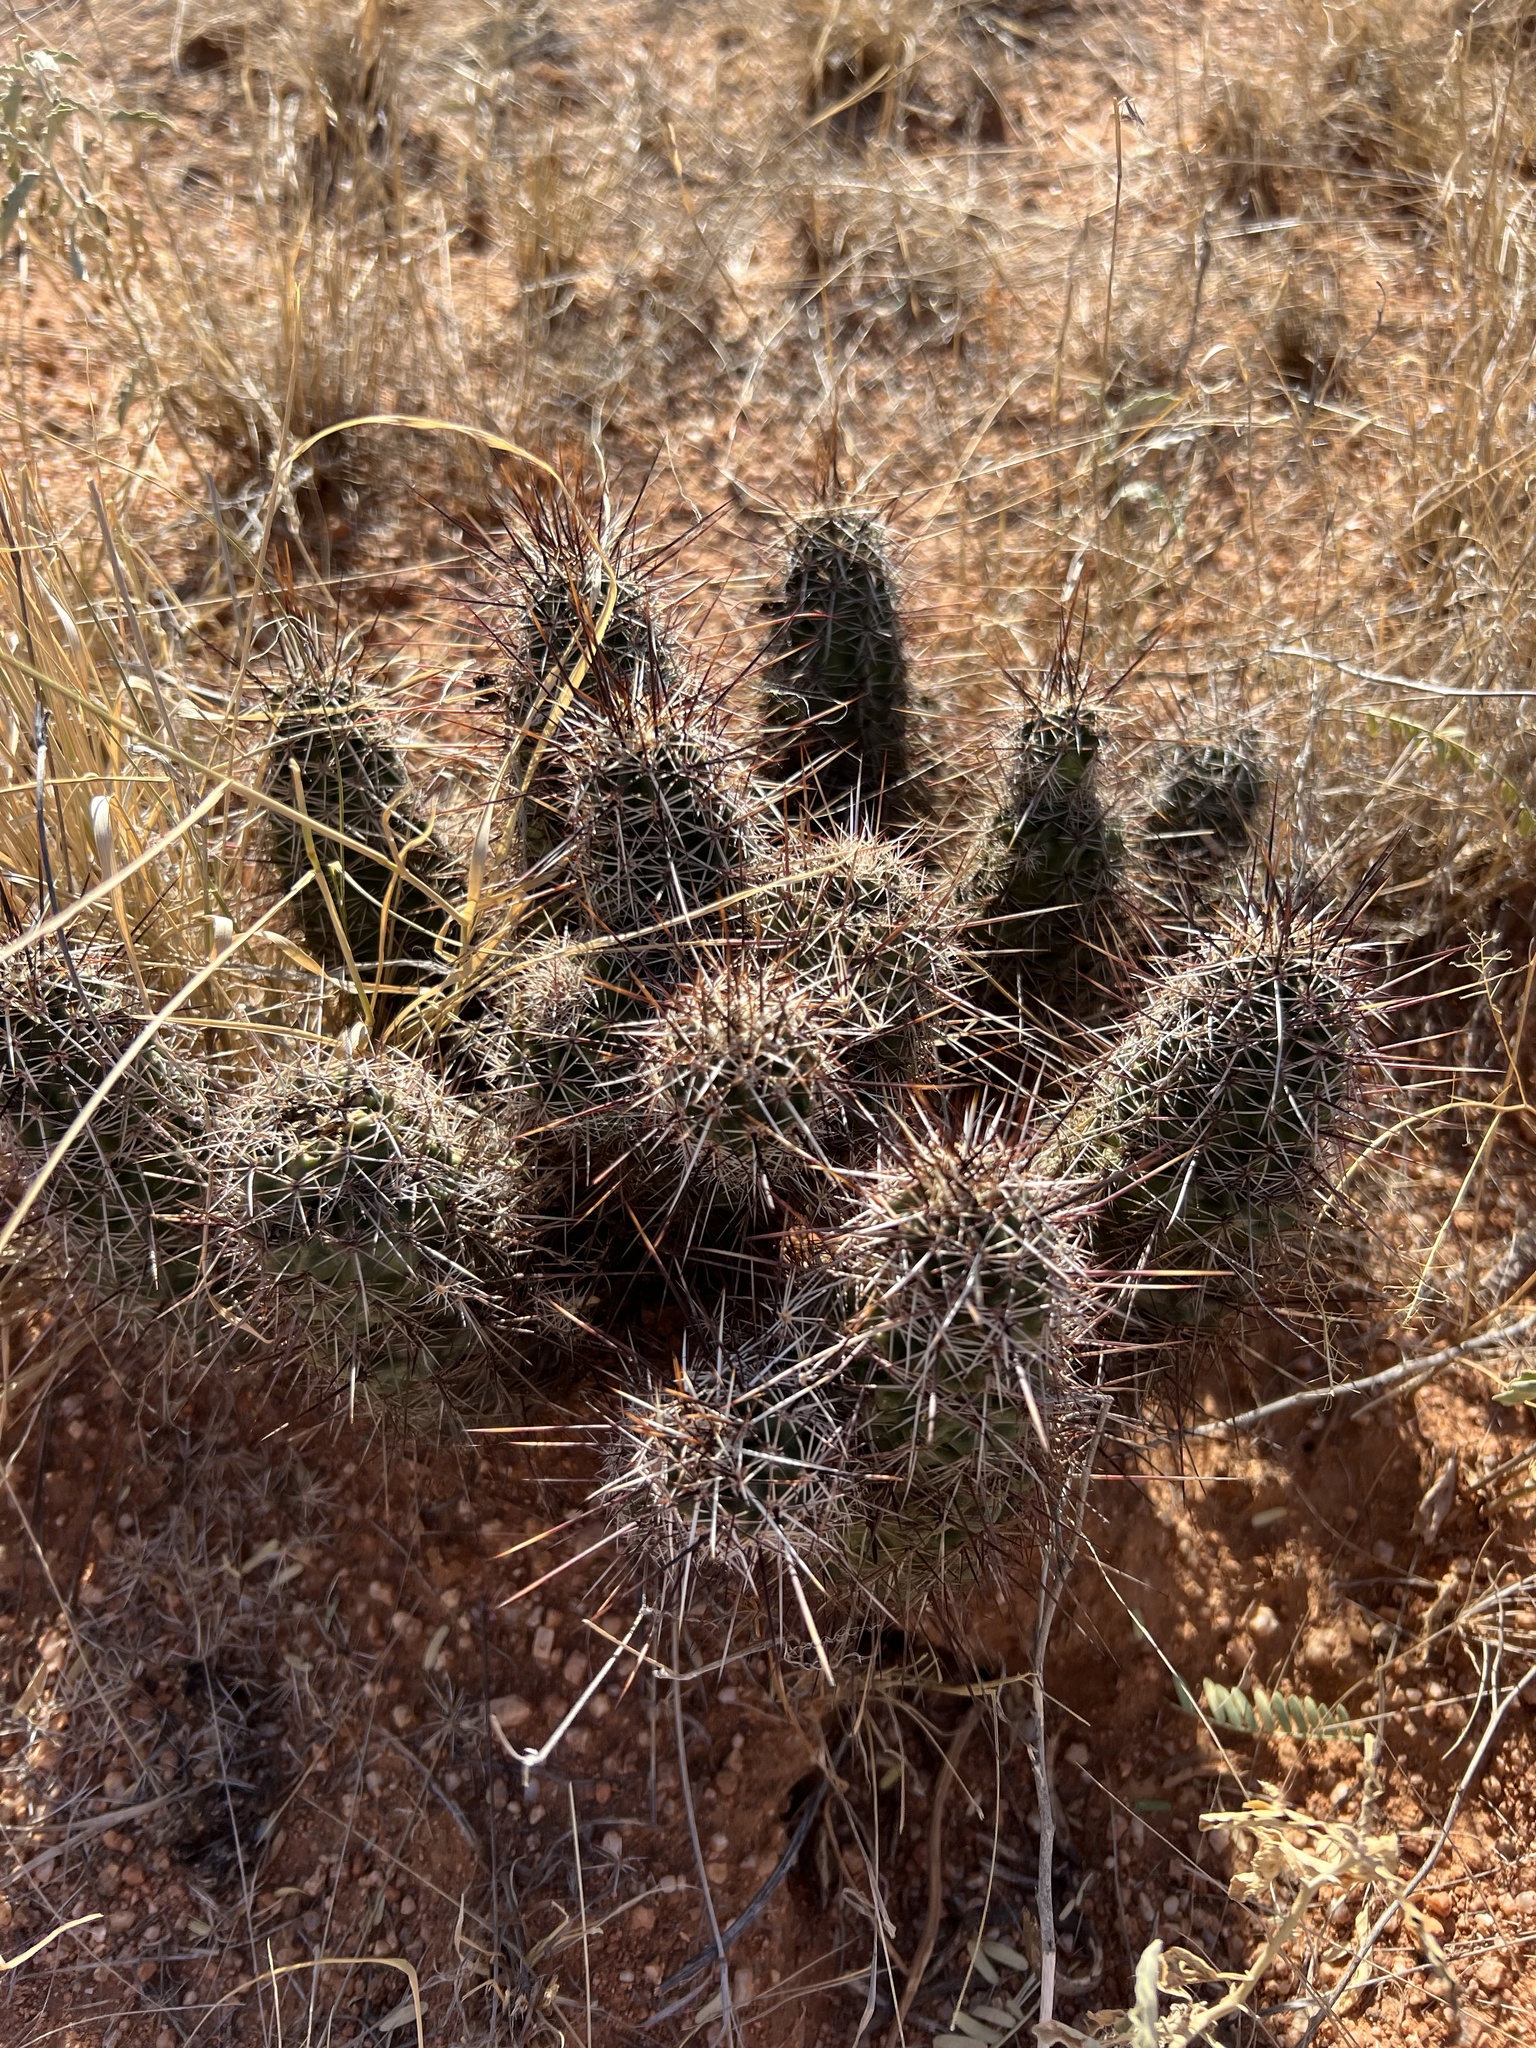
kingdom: Plantae
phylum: Tracheophyta
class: Magnoliopsida
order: Caryophyllales
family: Cactaceae
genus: Echinocereus
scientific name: Echinocereus fasciculatus
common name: Bundle hedgehog
